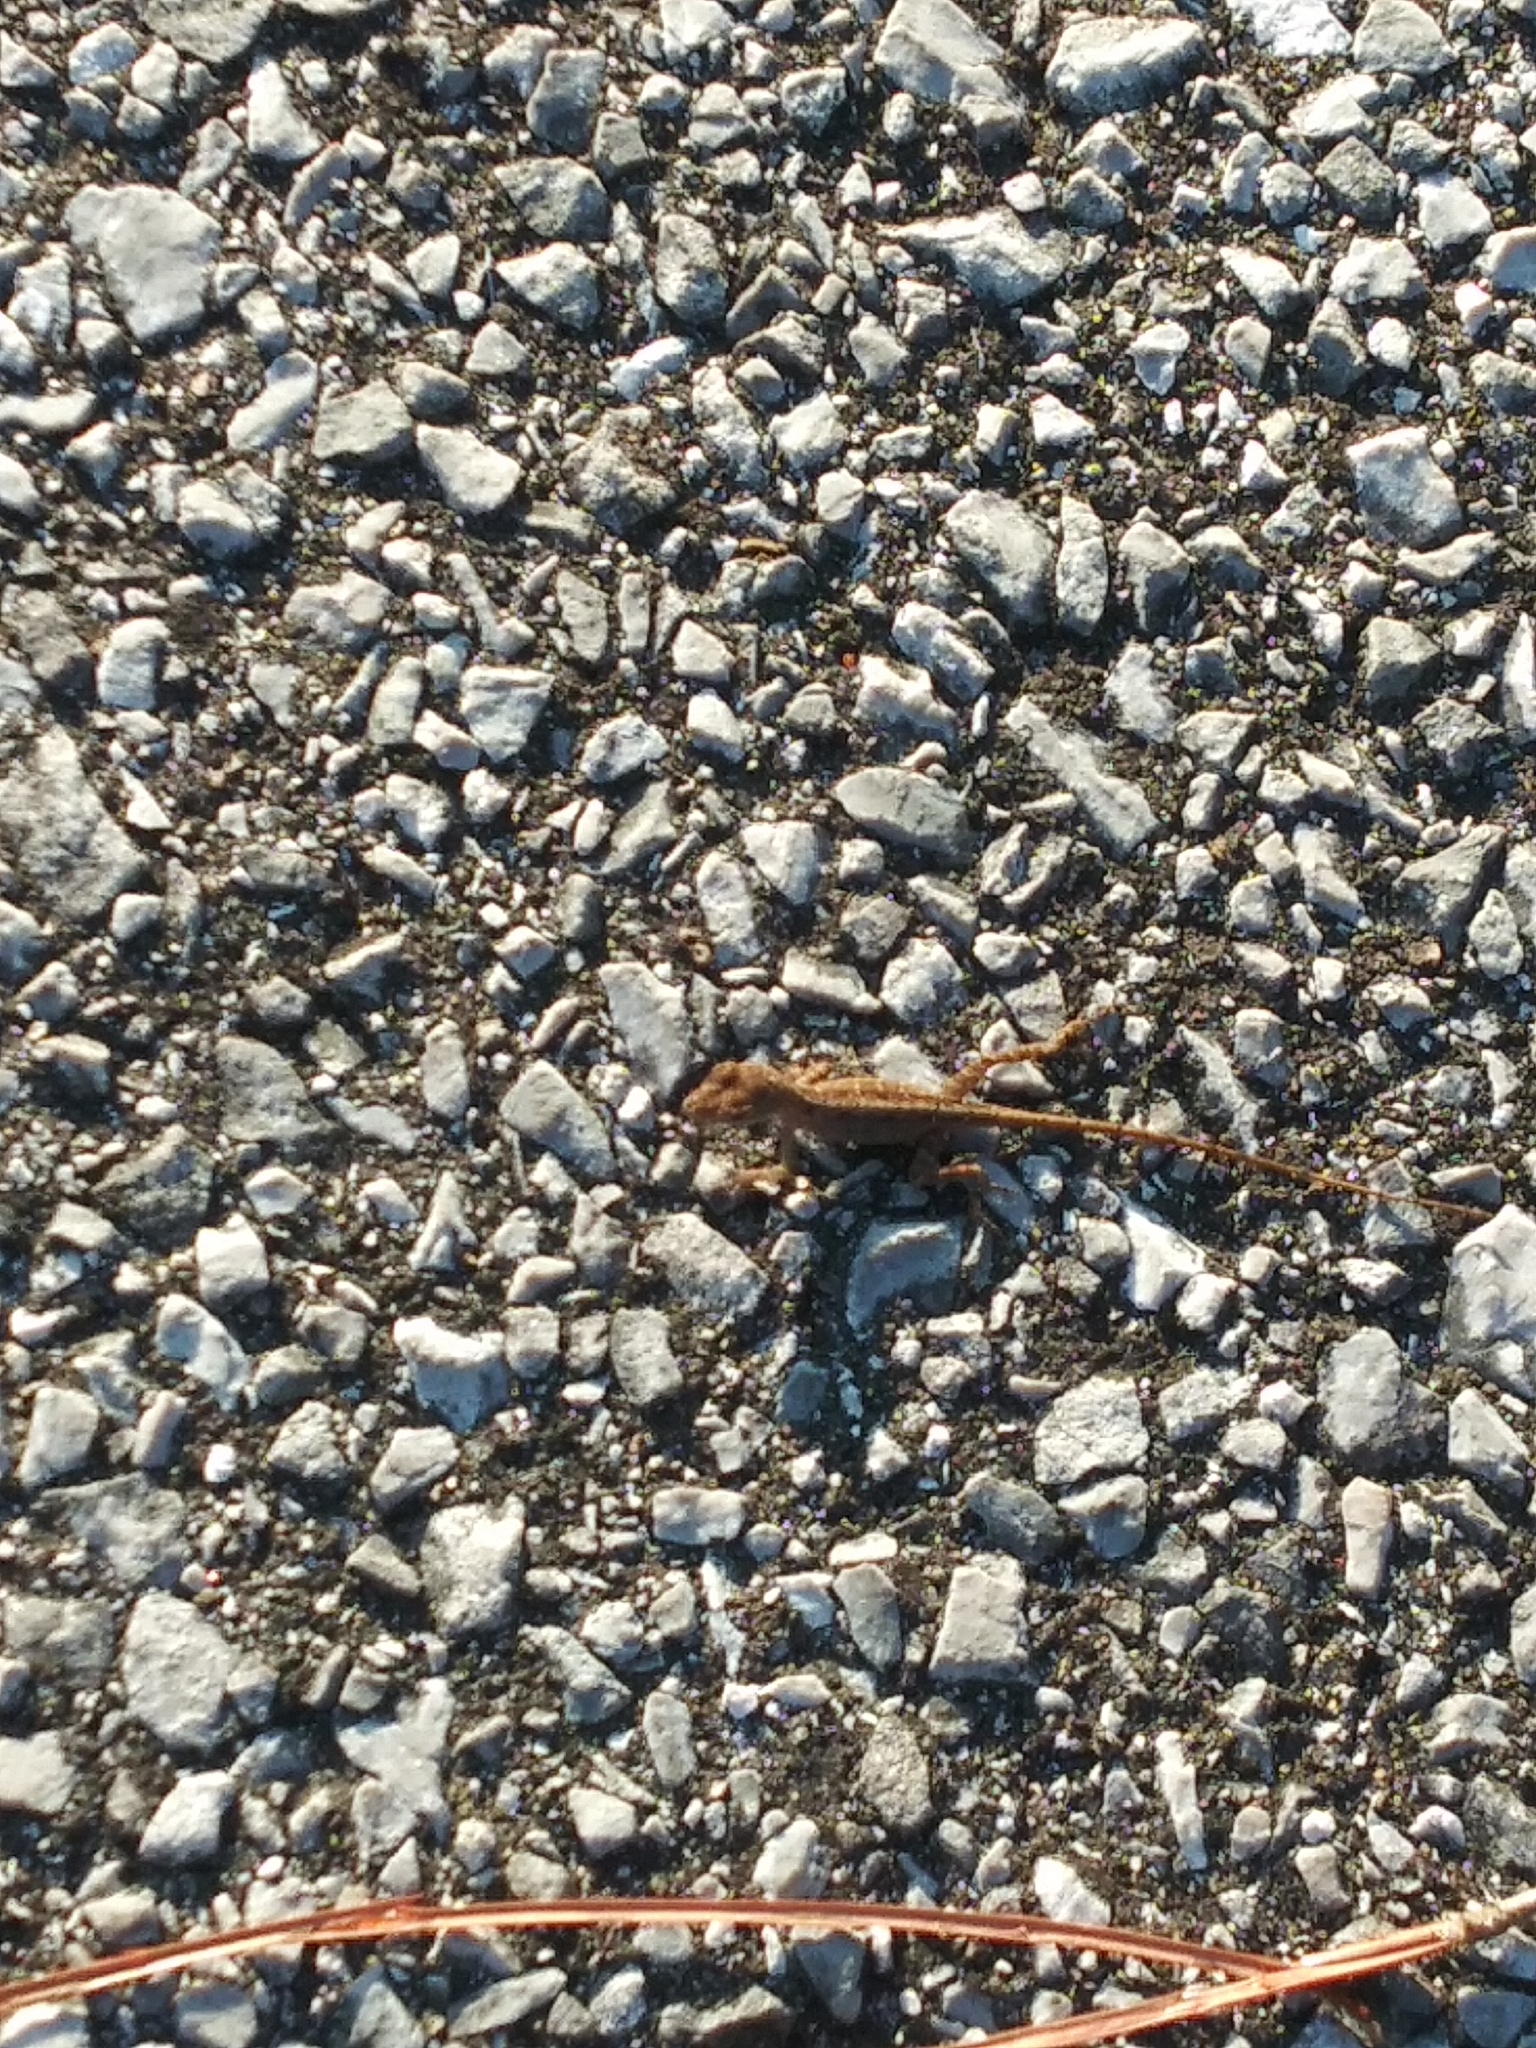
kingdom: Animalia
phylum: Chordata
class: Squamata
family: Dactyloidae
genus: Anolis
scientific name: Anolis sagrei
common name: Brown anole
